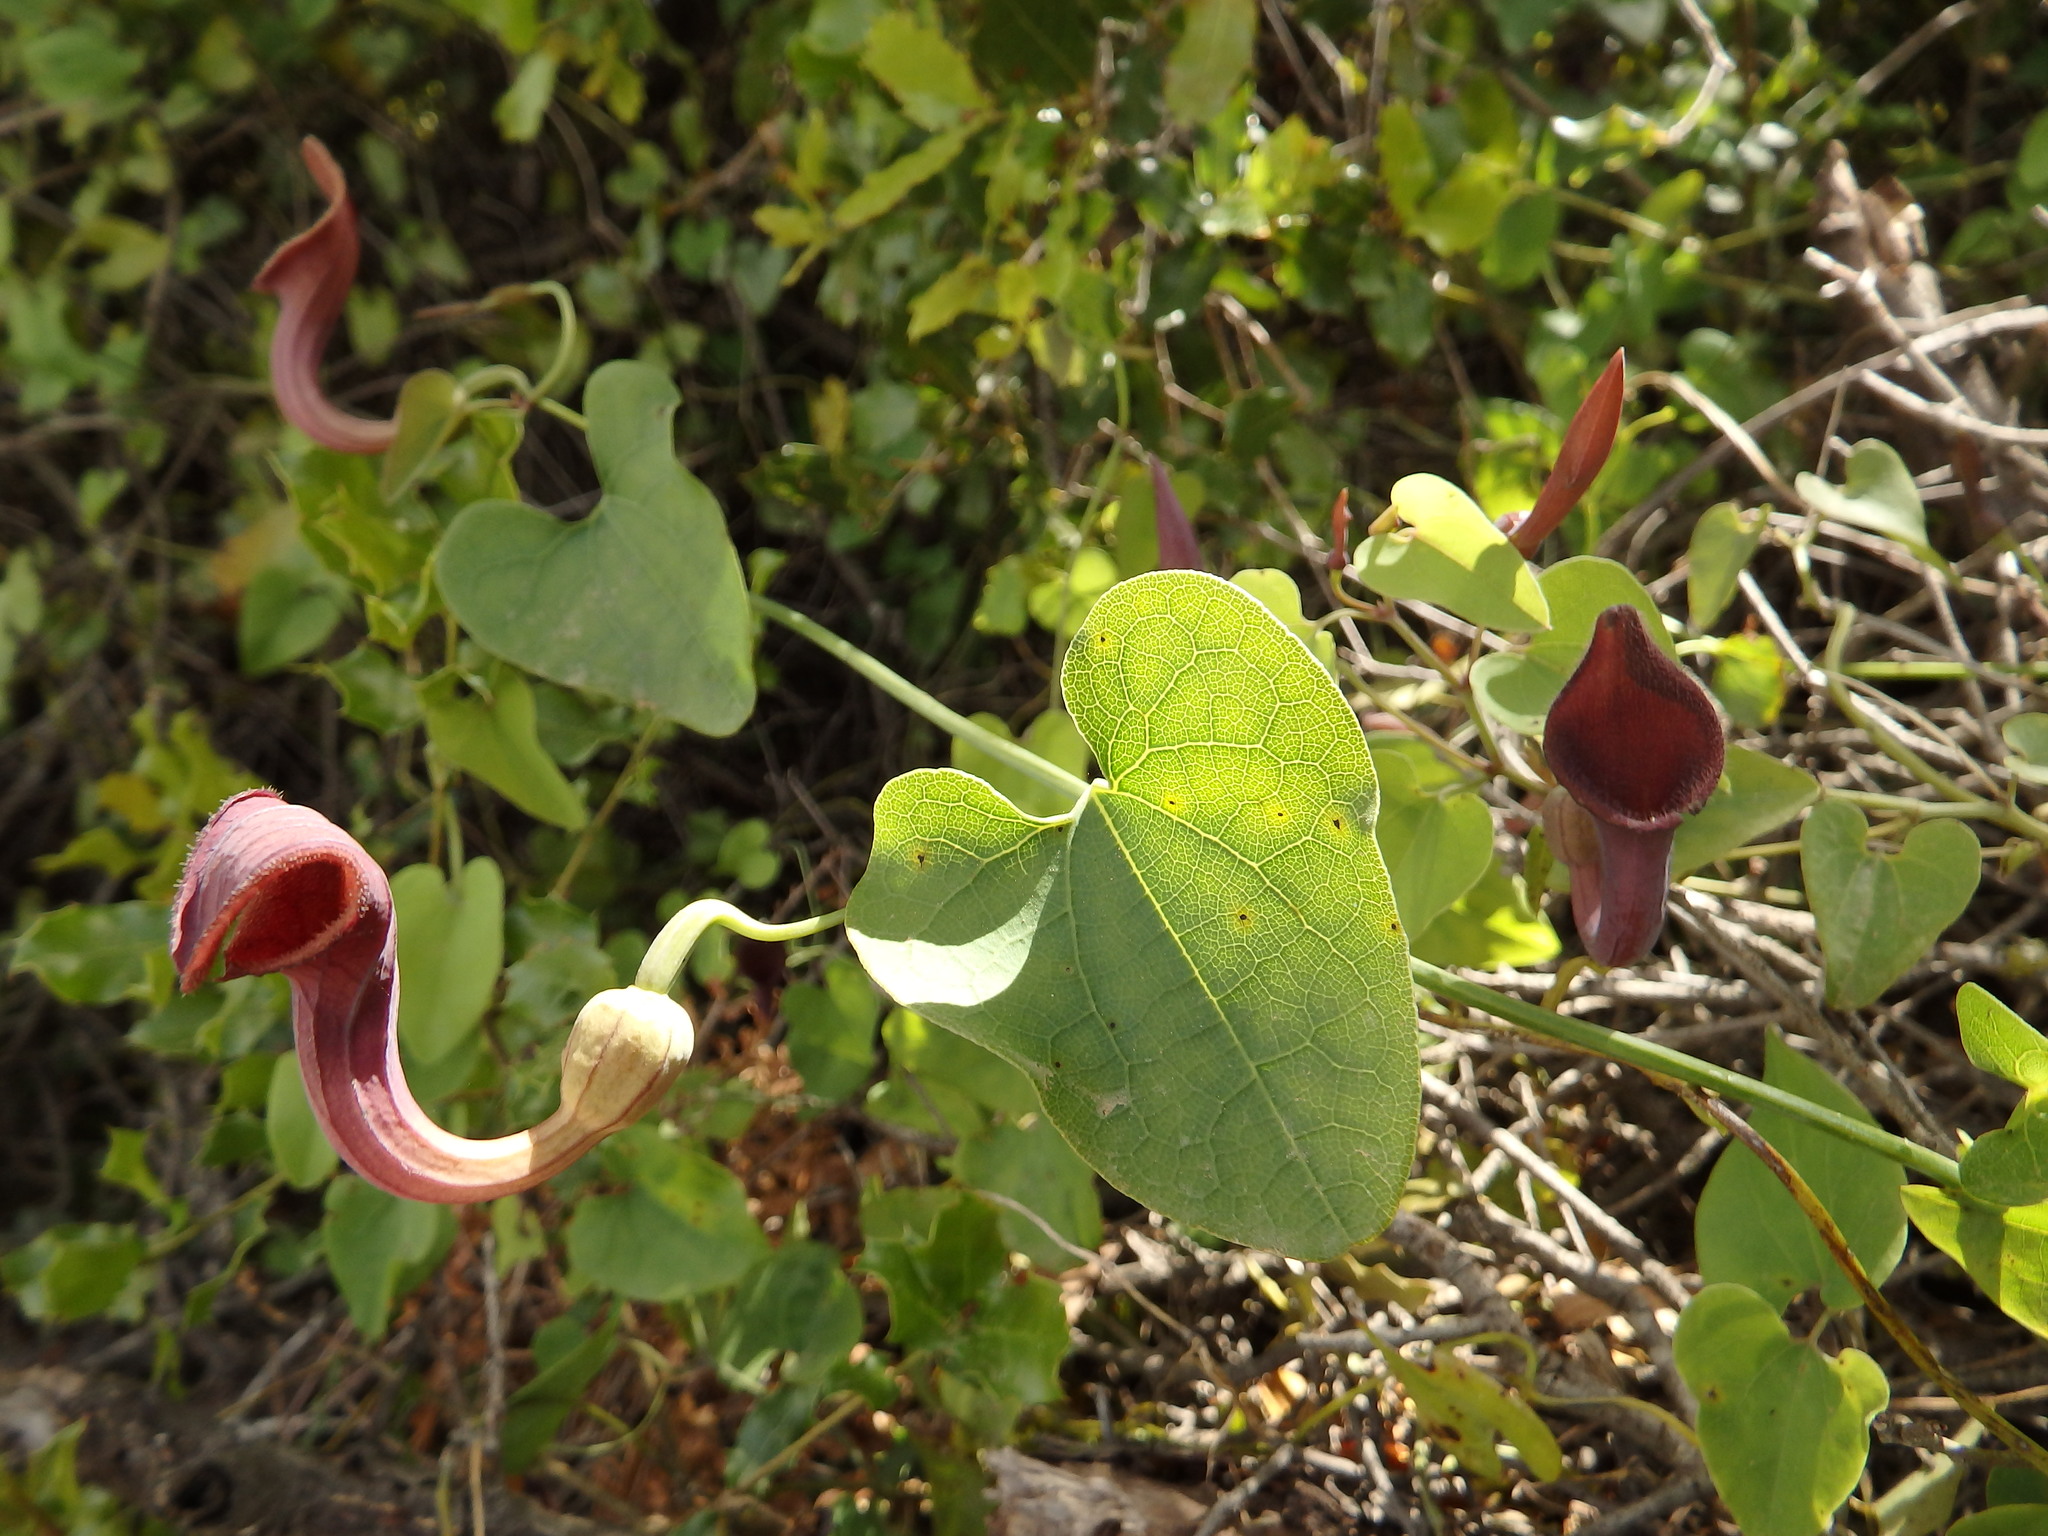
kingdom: Plantae
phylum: Tracheophyta
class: Magnoliopsida
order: Piperales
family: Aristolochiaceae
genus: Aristolochia
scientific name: Aristolochia baetica
